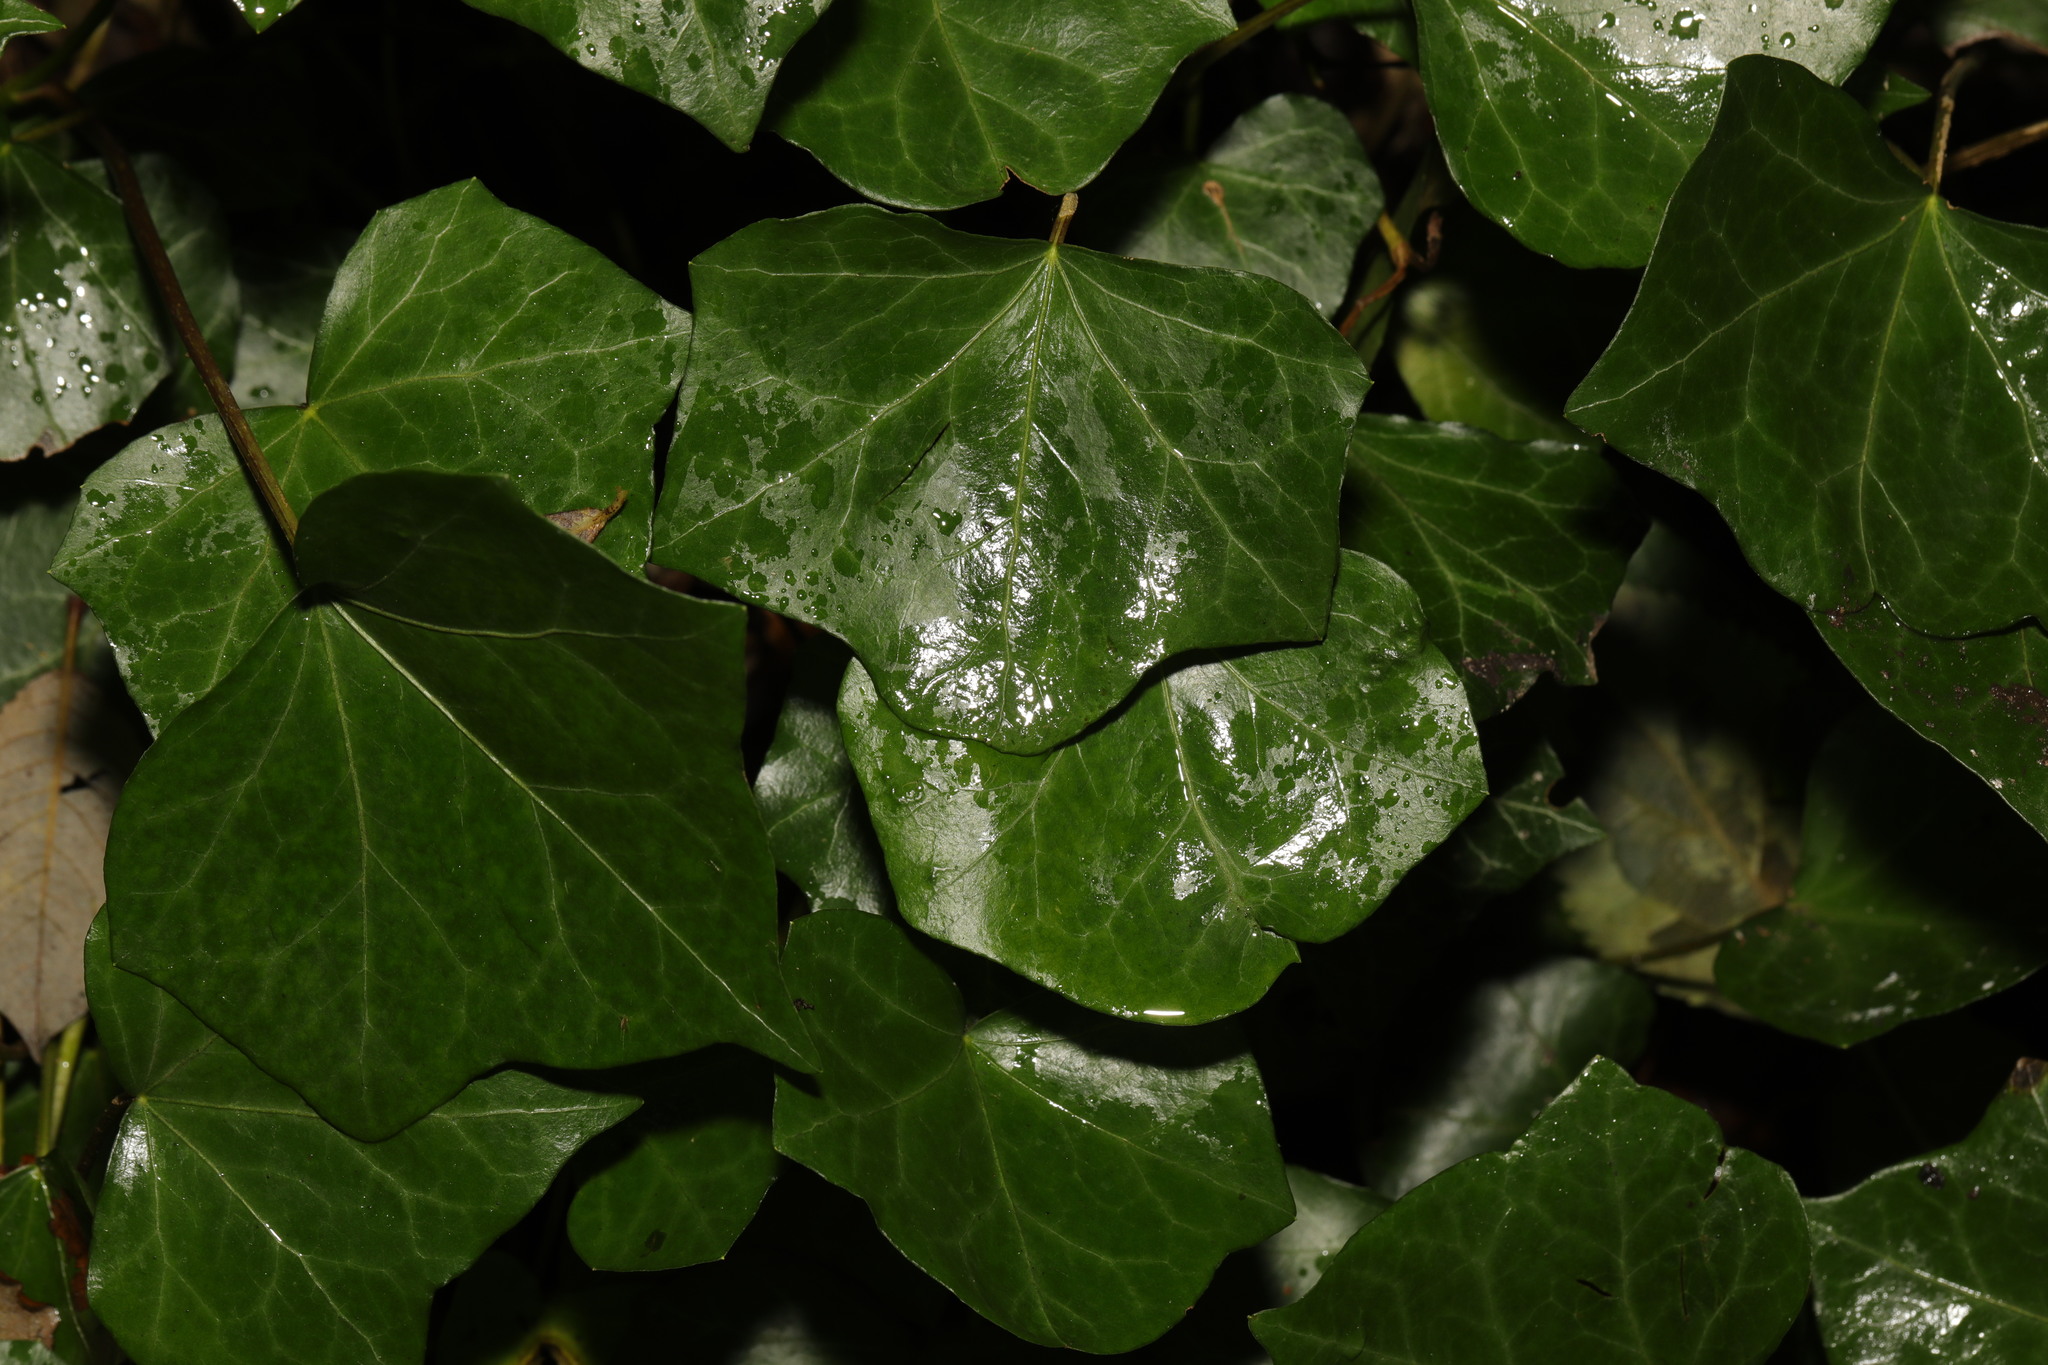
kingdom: Plantae
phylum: Tracheophyta
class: Magnoliopsida
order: Apiales
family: Araliaceae
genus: Hedera
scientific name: Hedera helix
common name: Ivy
